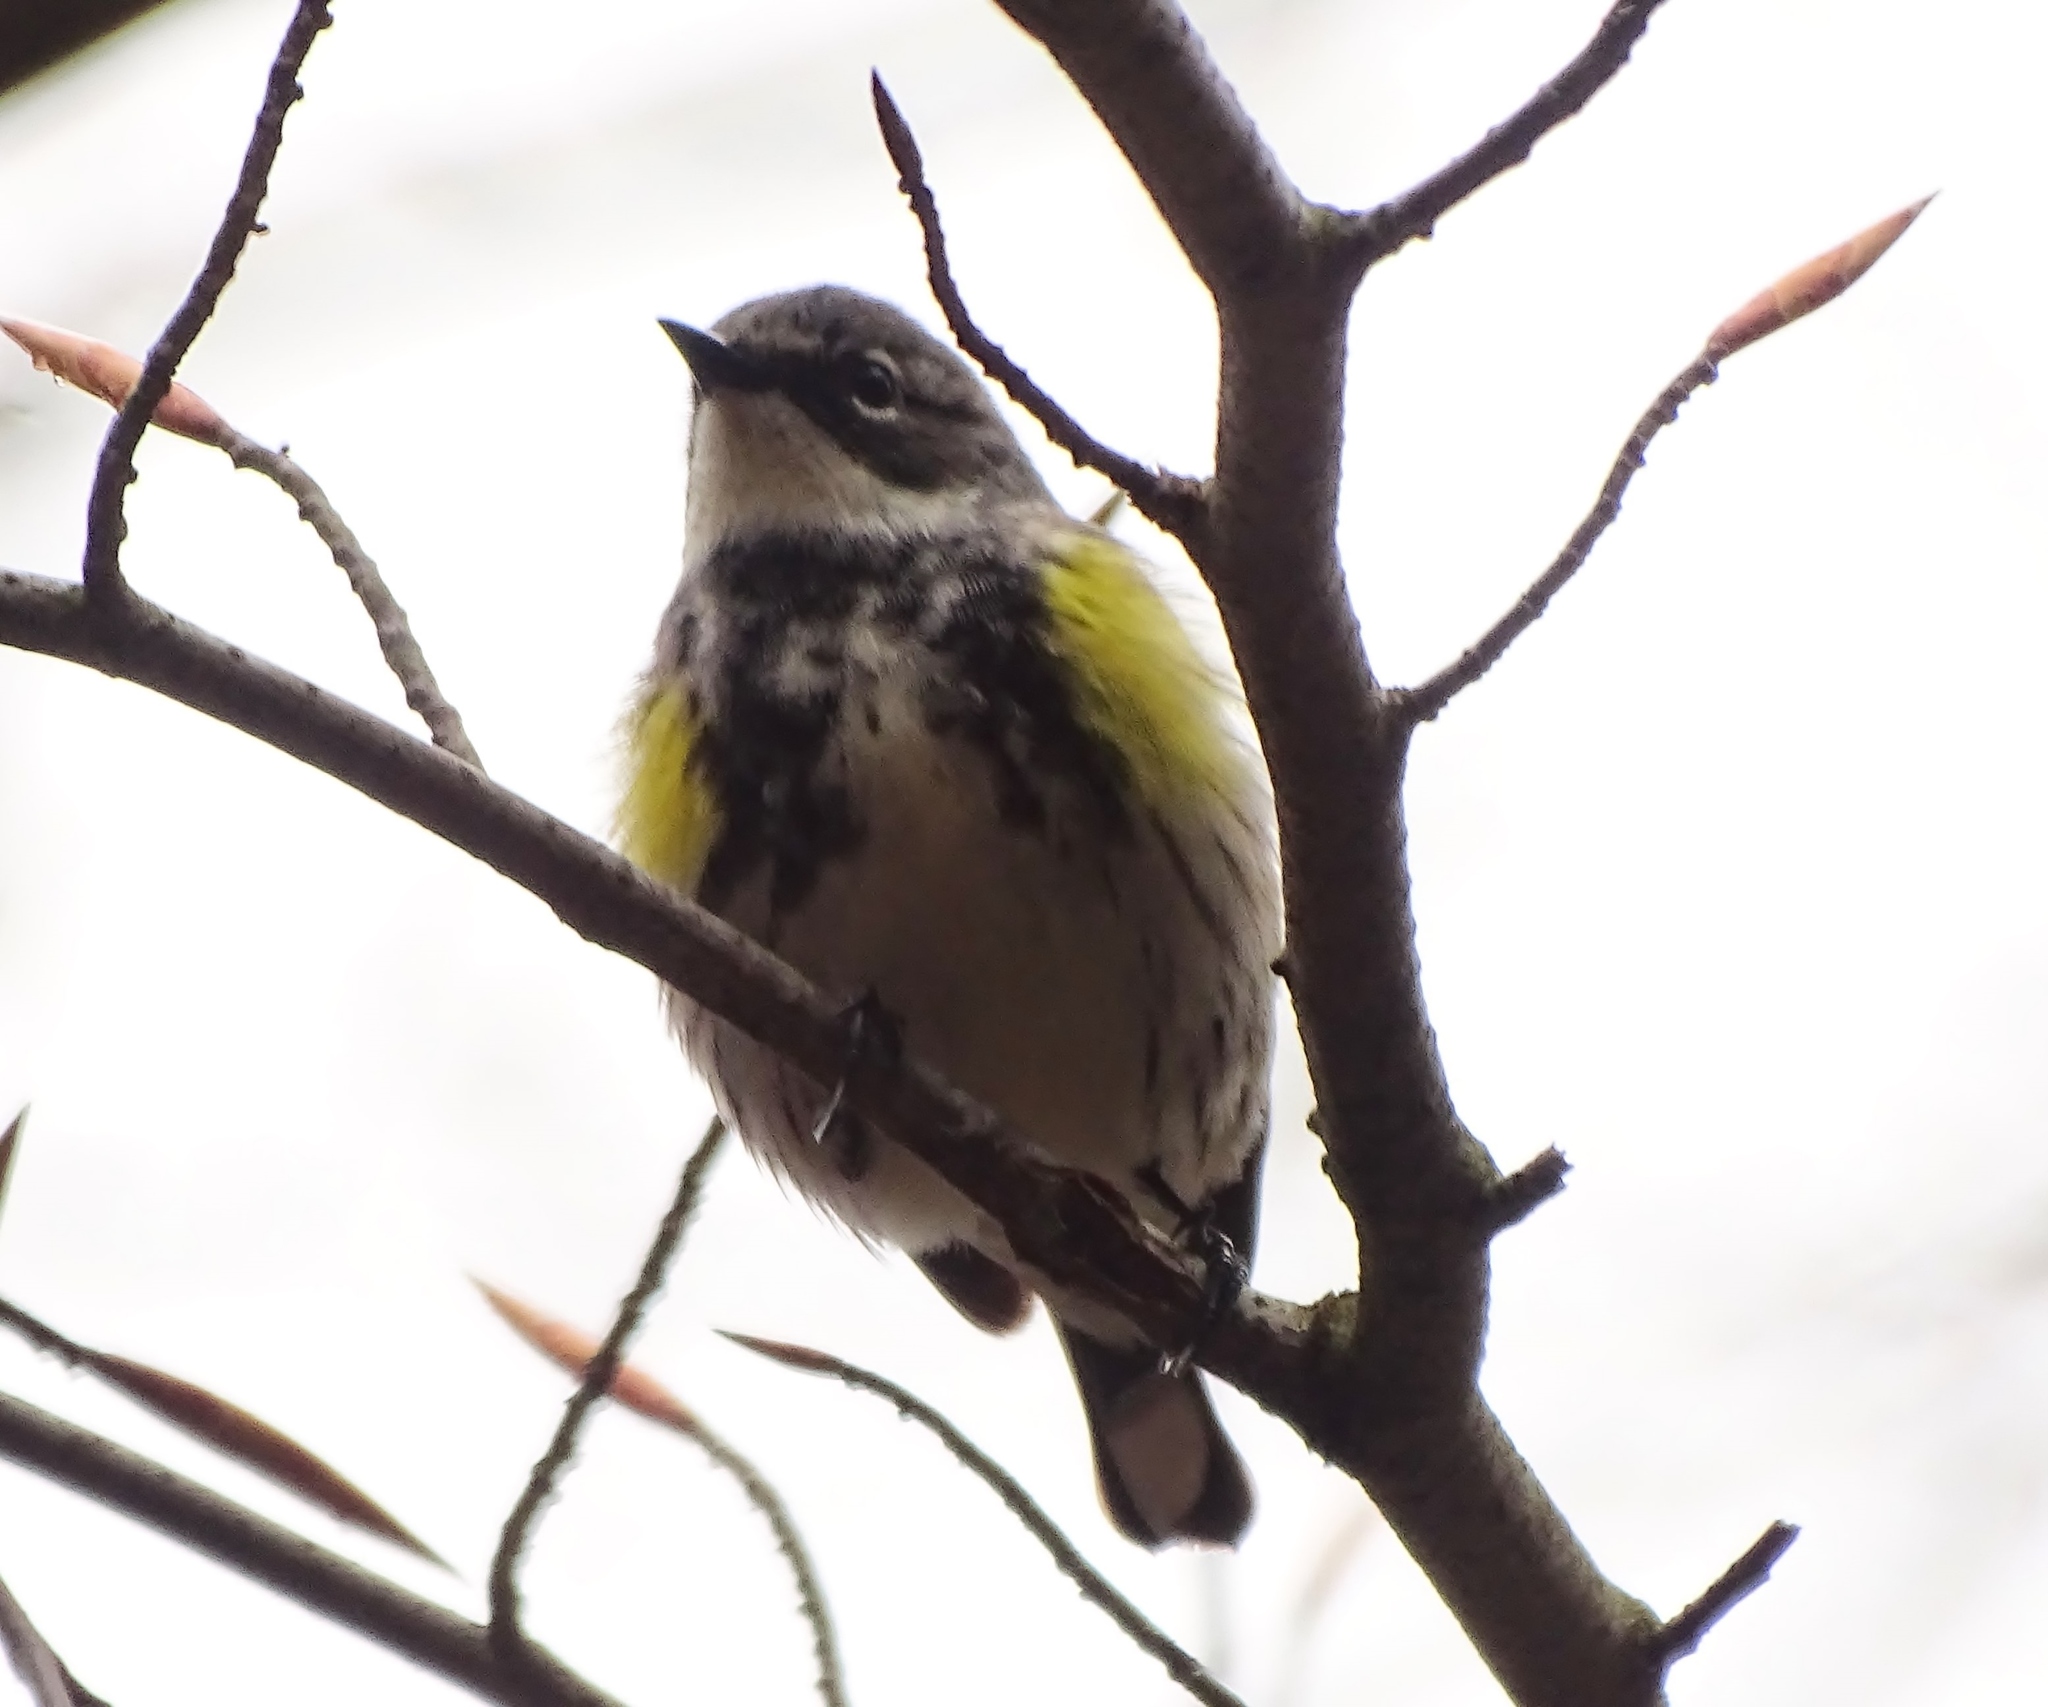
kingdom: Animalia
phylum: Chordata
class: Aves
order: Passeriformes
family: Parulidae
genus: Setophaga
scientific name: Setophaga coronata
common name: Myrtle warbler
